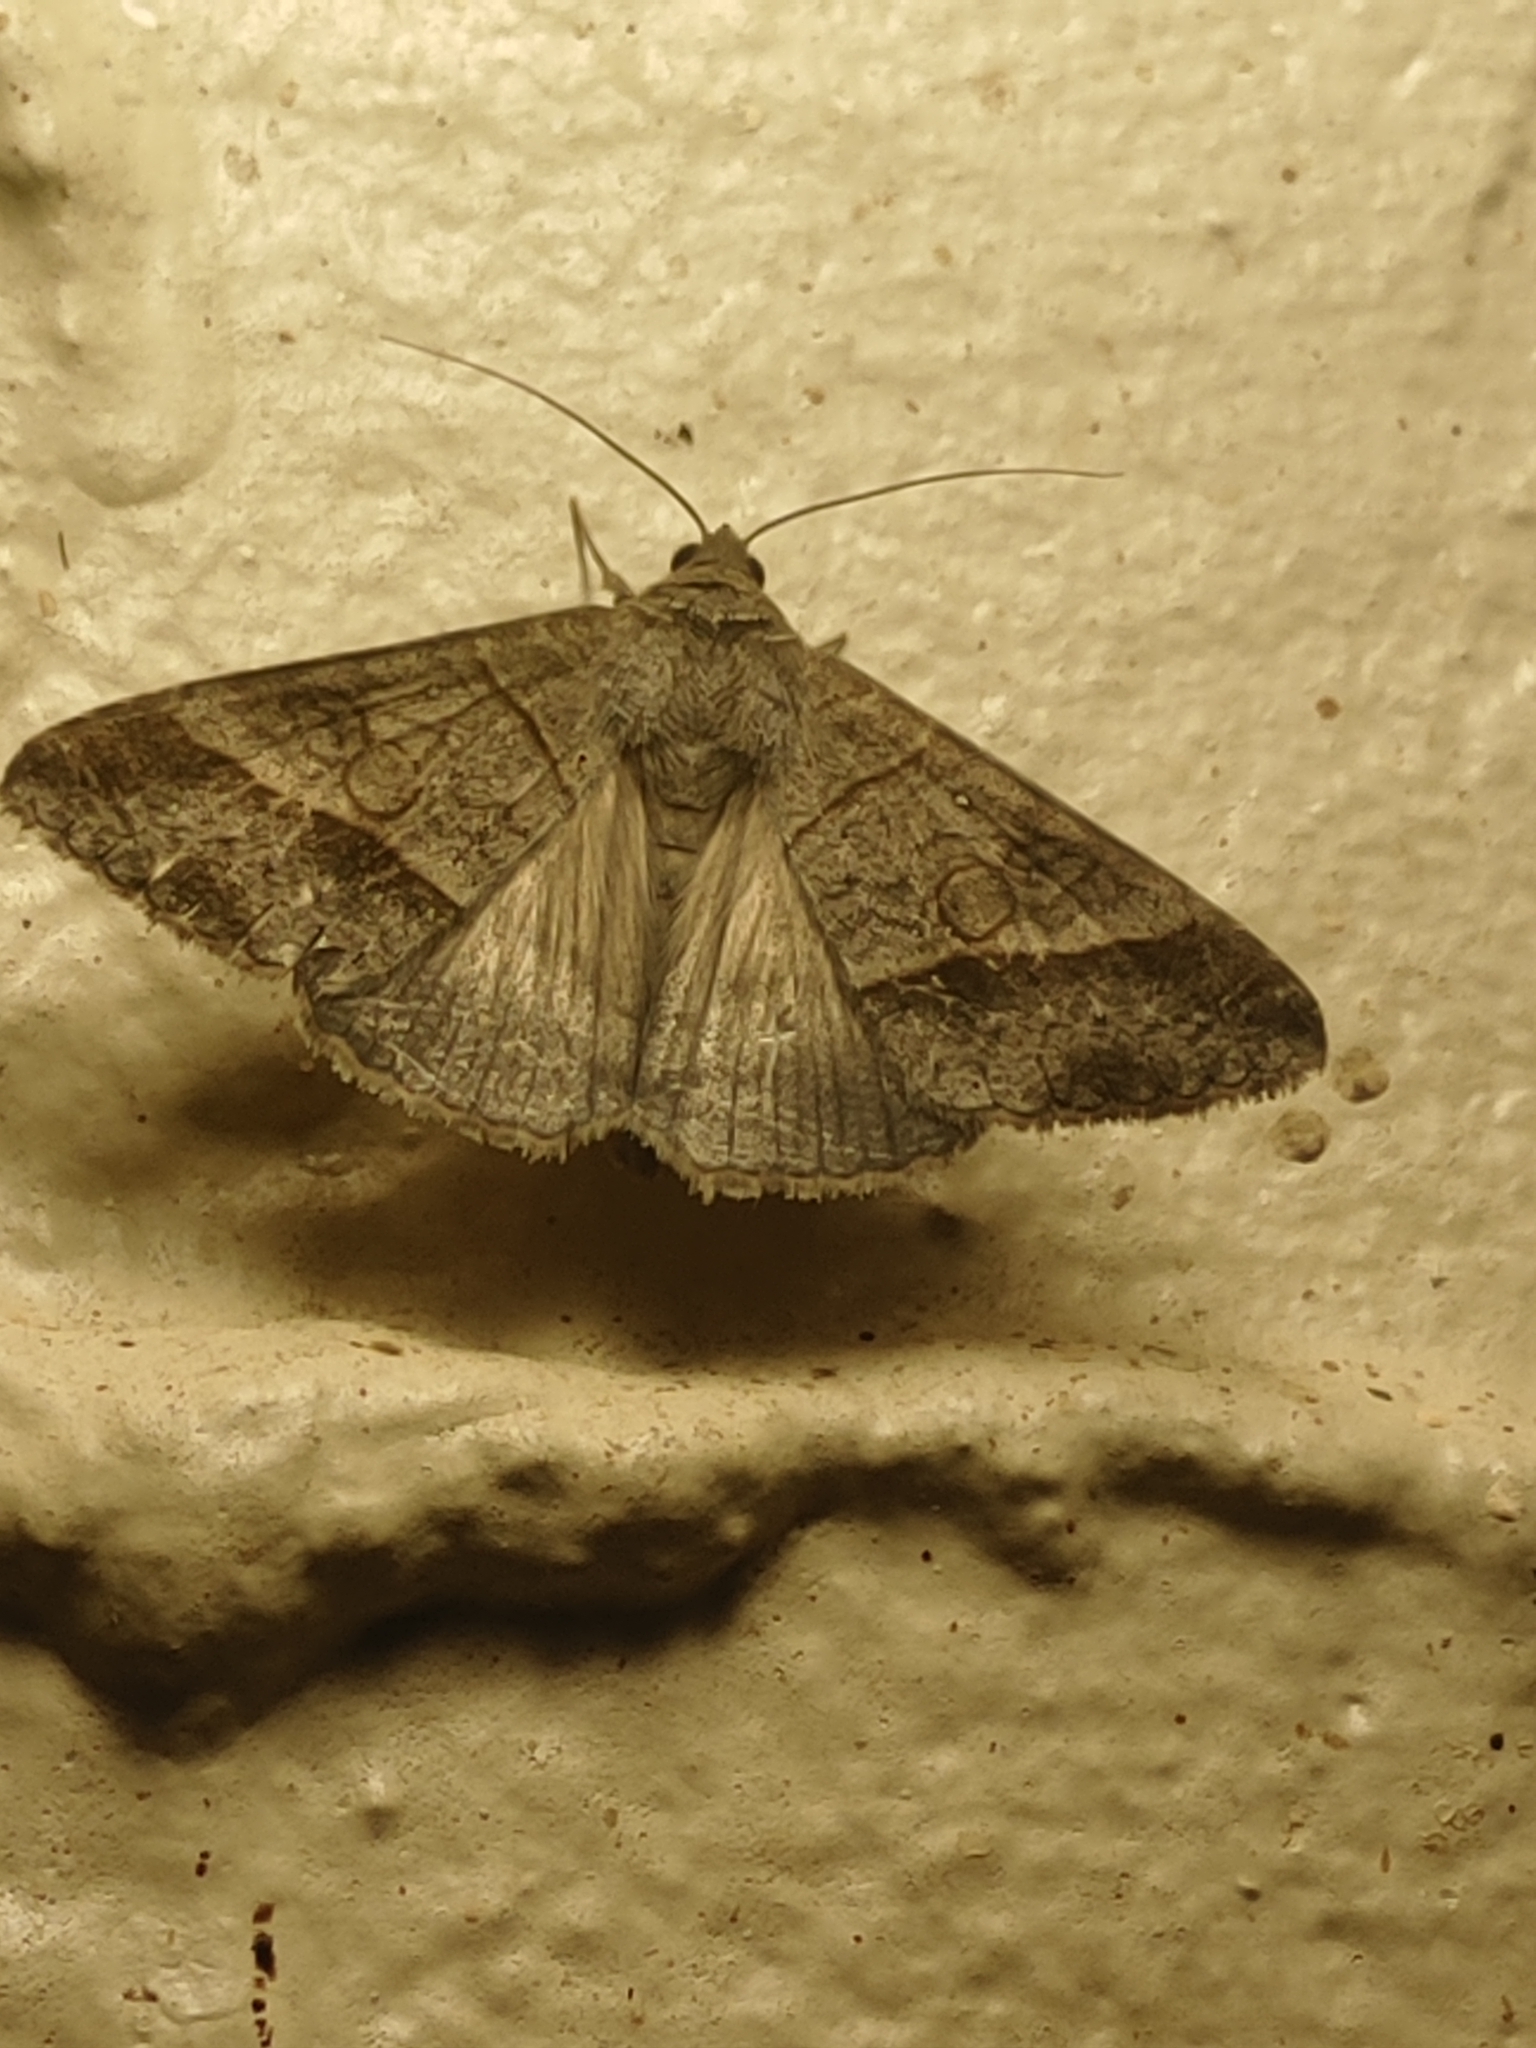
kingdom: Animalia
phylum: Arthropoda
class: Insecta
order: Lepidoptera
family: Erebidae
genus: Mocis
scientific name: Mocis latipes
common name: Striped grass looper
